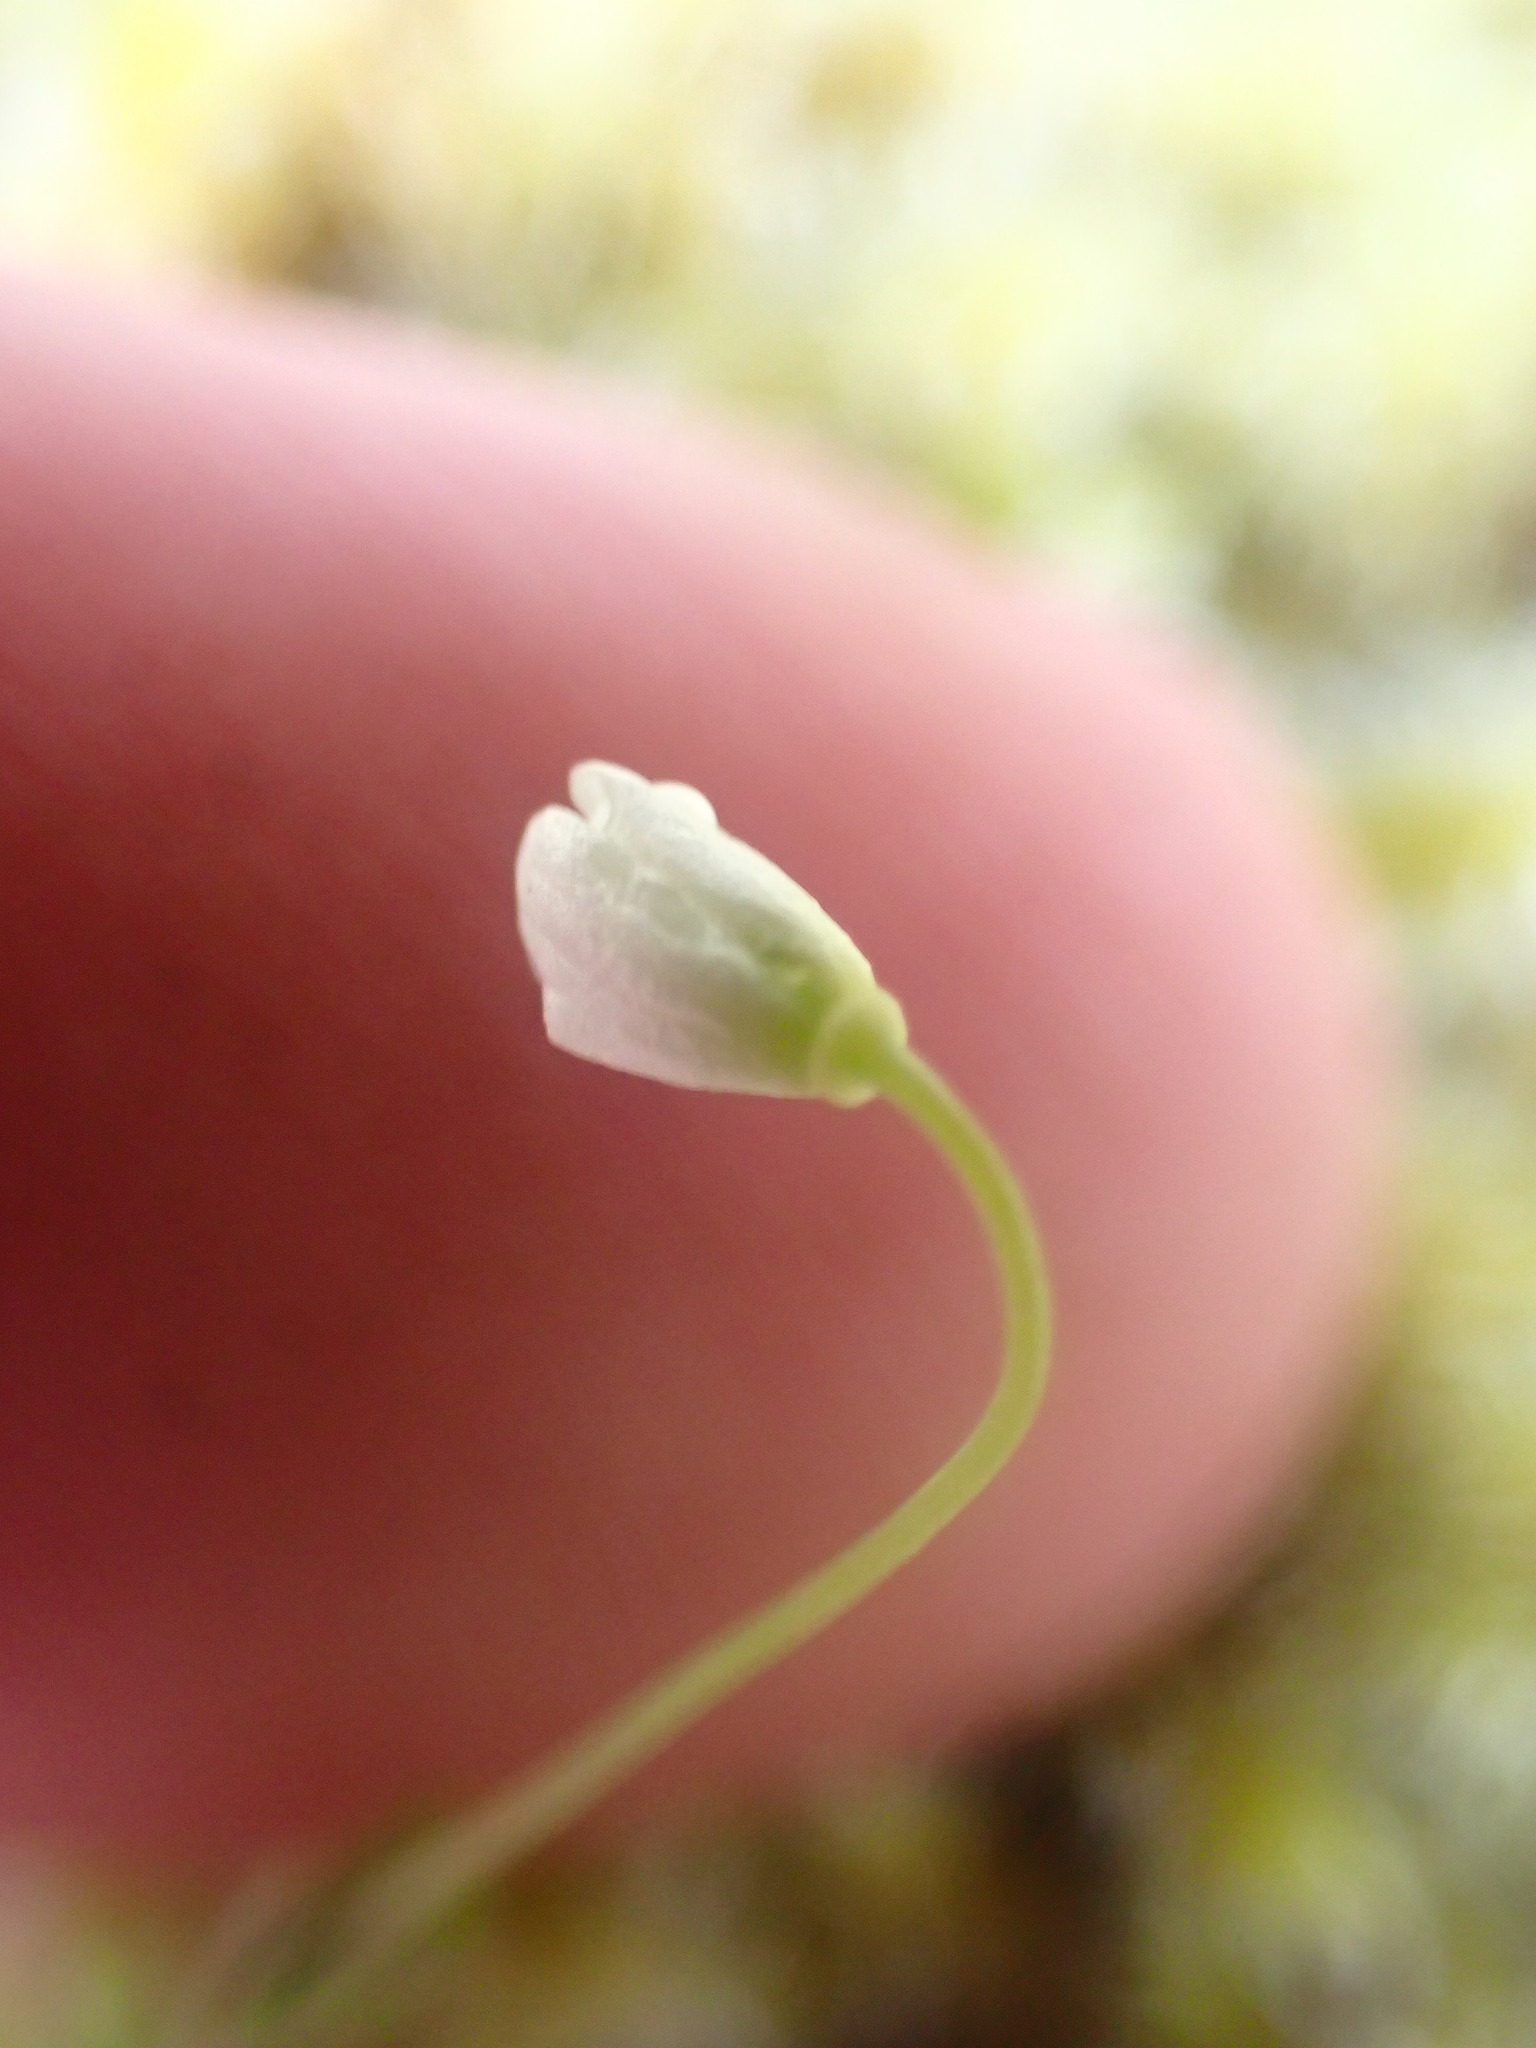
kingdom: Plantae
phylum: Tracheophyta
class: Magnoliopsida
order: Ranunculales
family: Papaveraceae
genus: Meconella
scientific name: Meconella oregana
